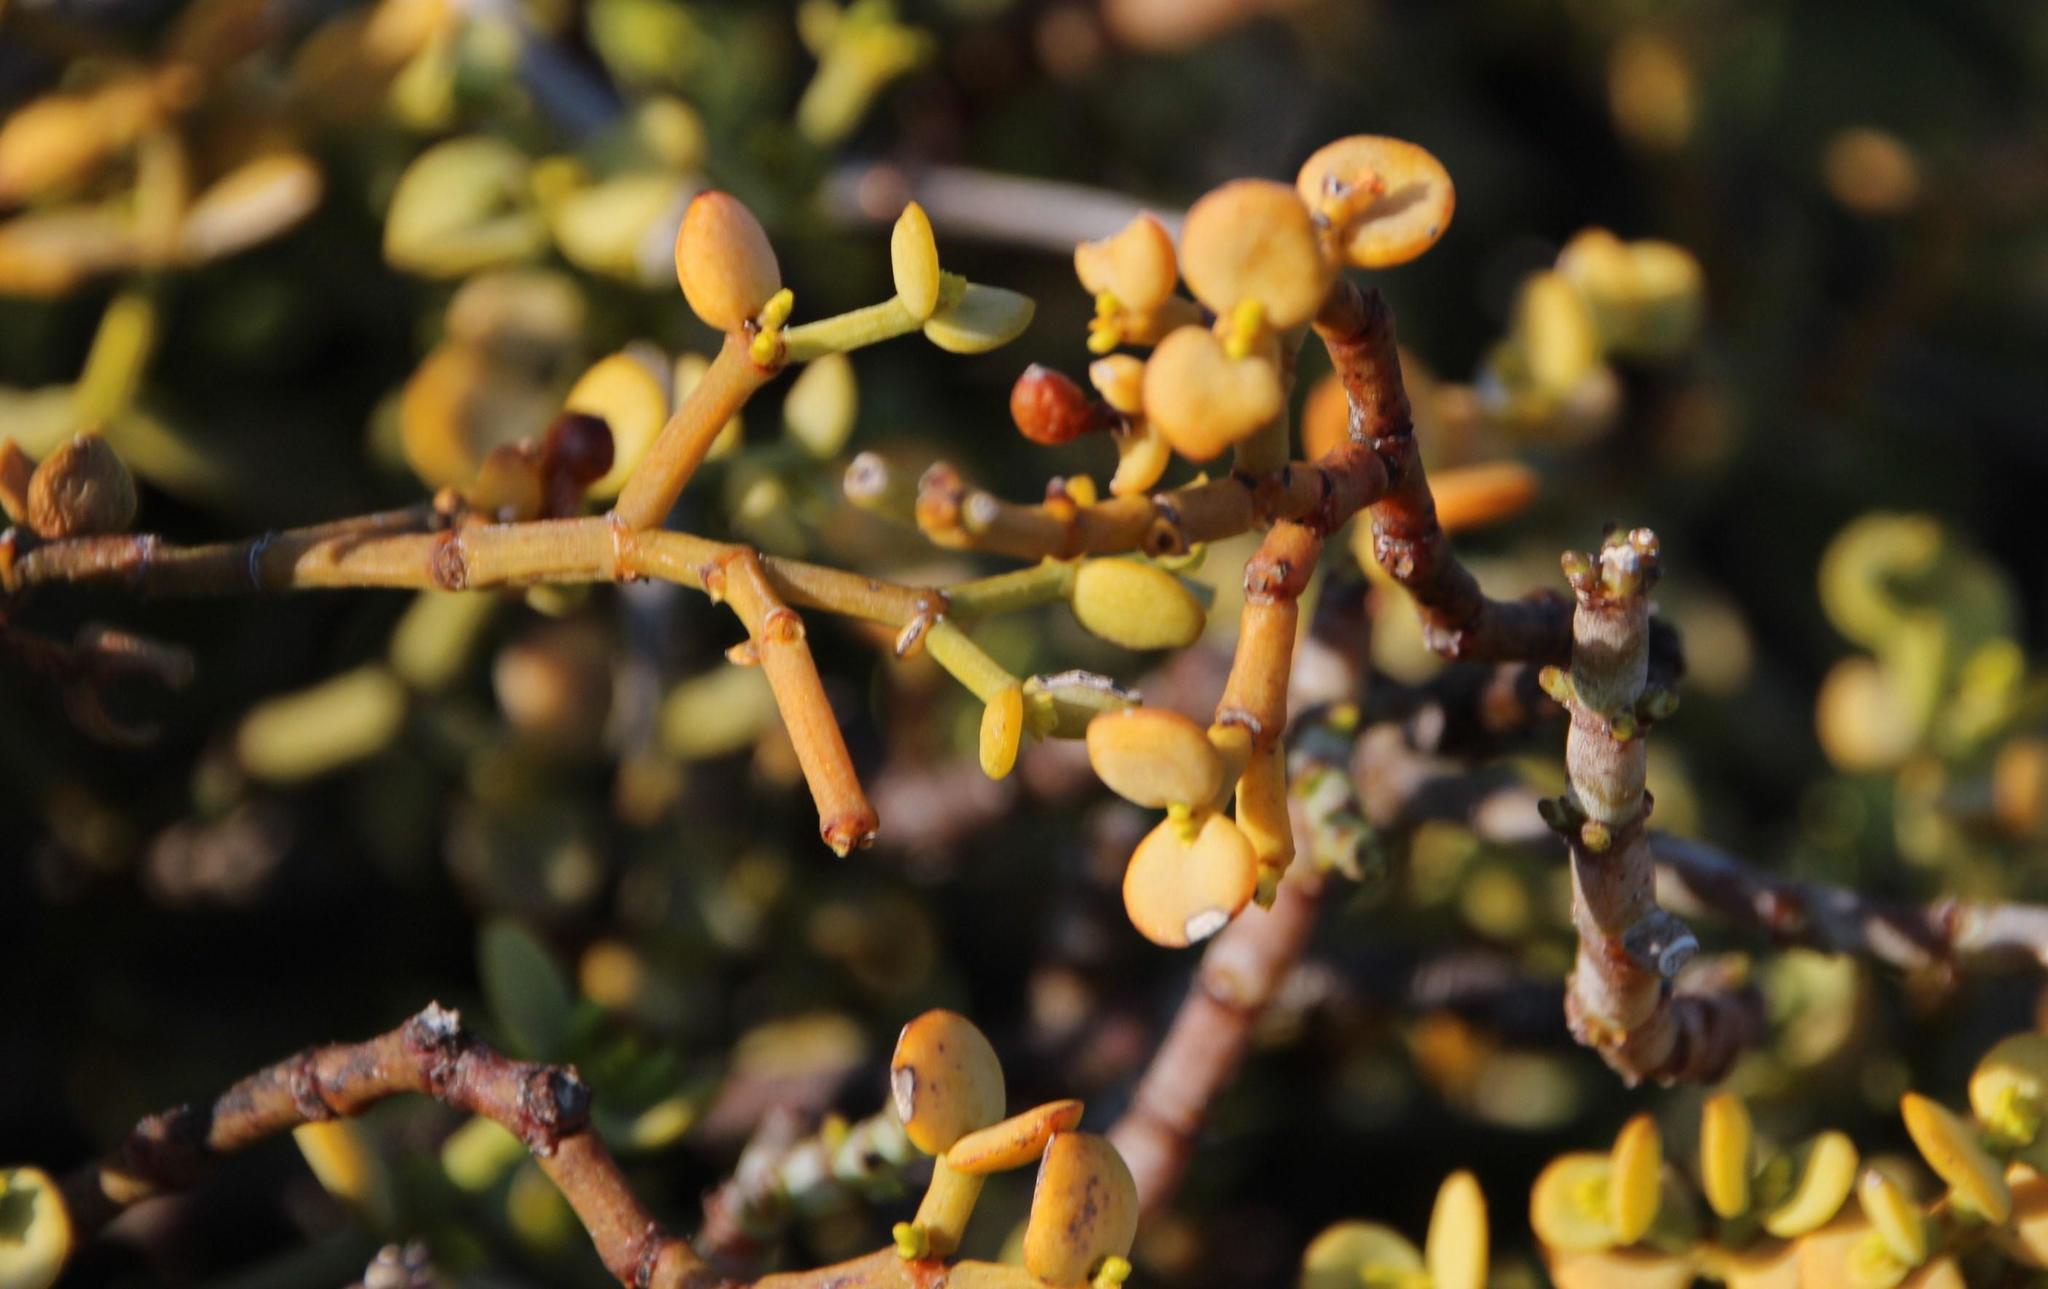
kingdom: Plantae
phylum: Tracheophyta
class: Magnoliopsida
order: Santalales
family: Viscaceae
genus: Viscum
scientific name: Viscum rotundifolium
